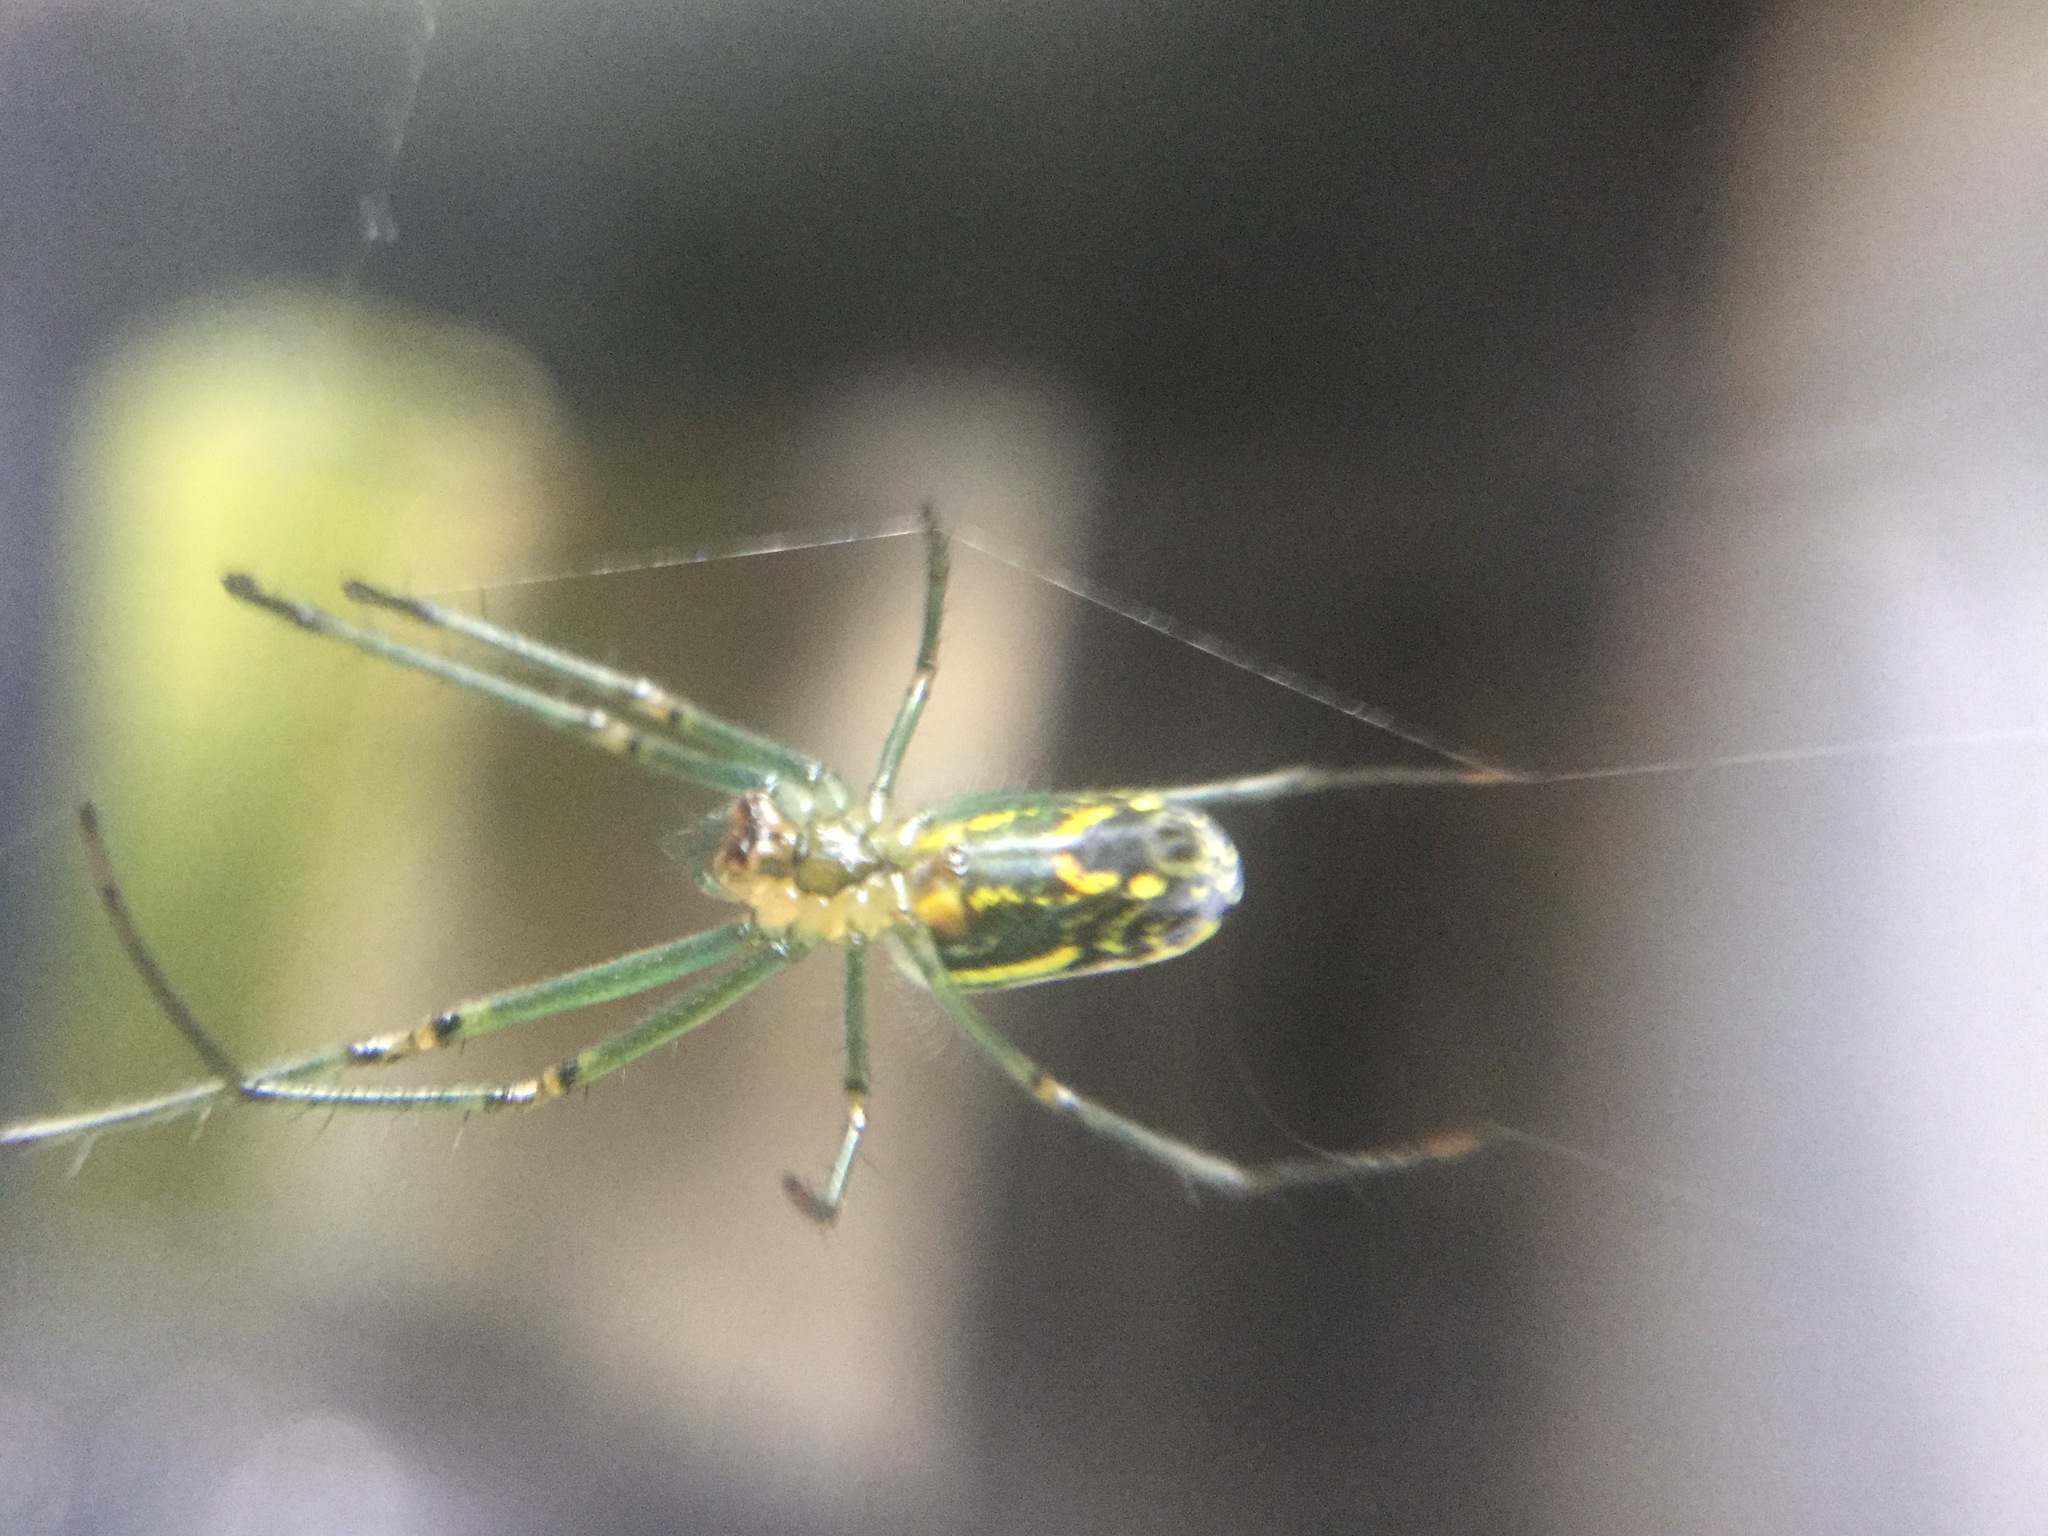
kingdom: Animalia
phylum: Arthropoda
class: Arachnida
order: Araneae
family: Tetragnathidae
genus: Leucauge
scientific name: Leucauge venusta
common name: Longjawed orb weavers
